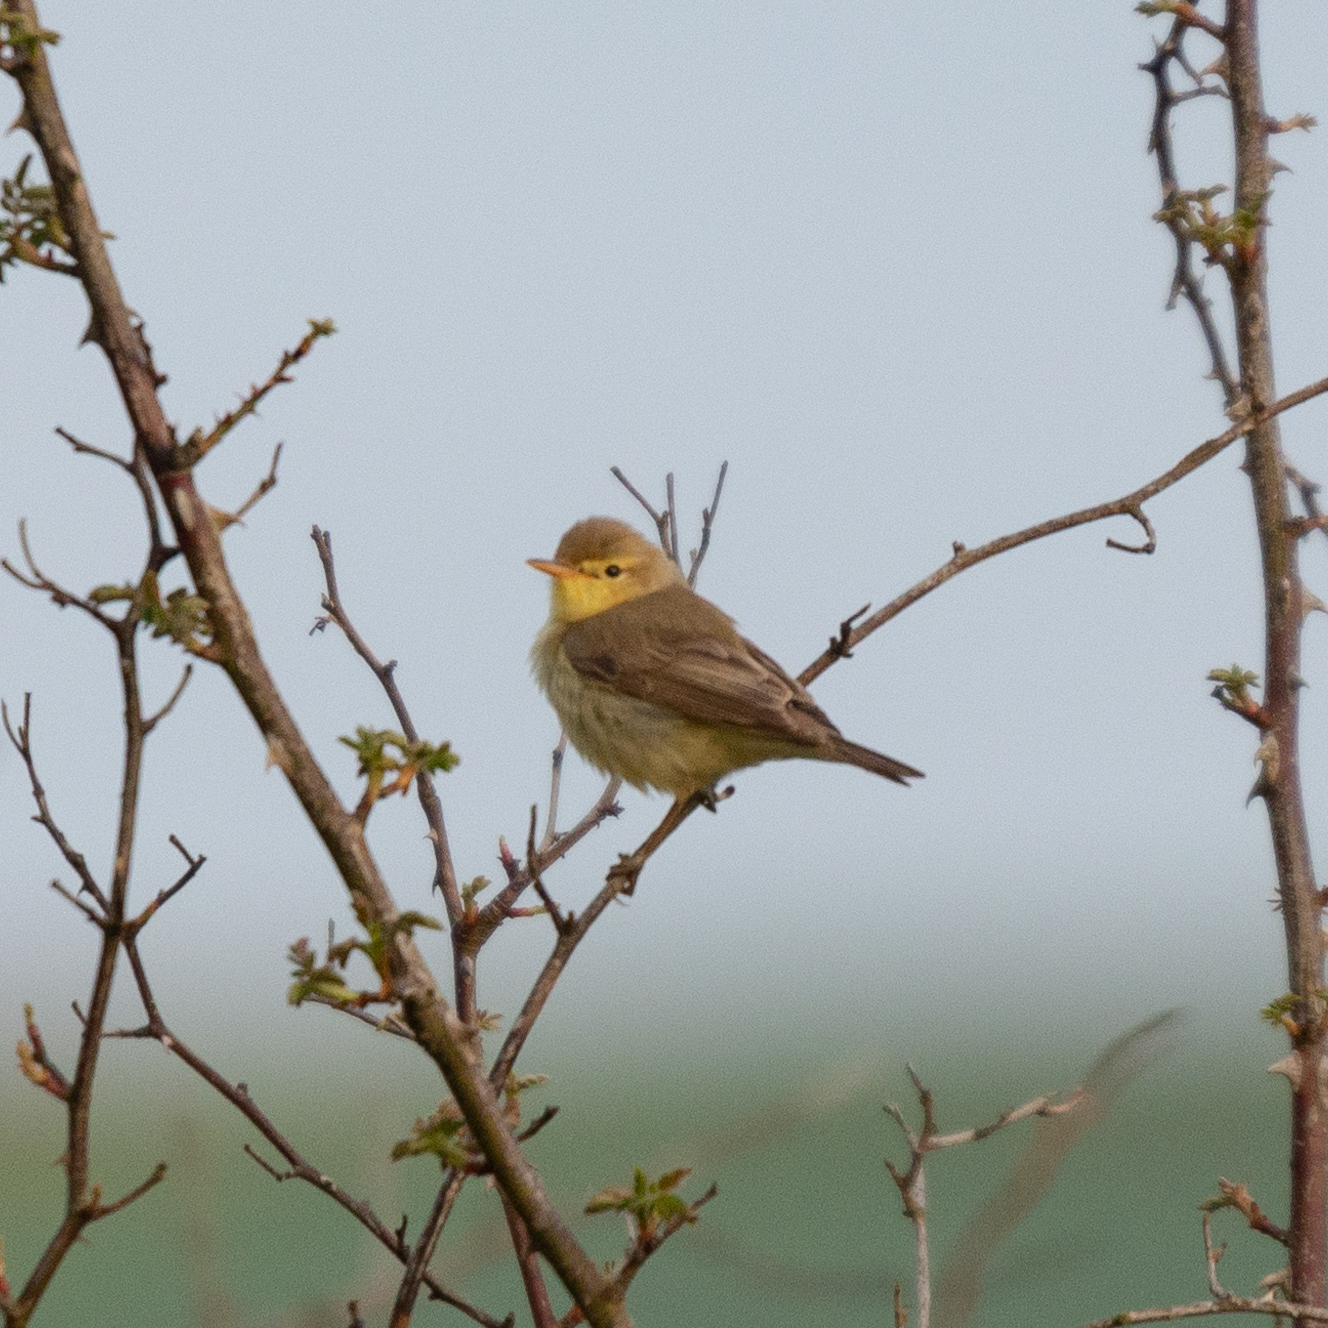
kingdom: Animalia
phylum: Chordata
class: Aves
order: Passeriformes
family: Acrocephalidae
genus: Hippolais
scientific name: Hippolais polyglotta
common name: Melodious warbler
